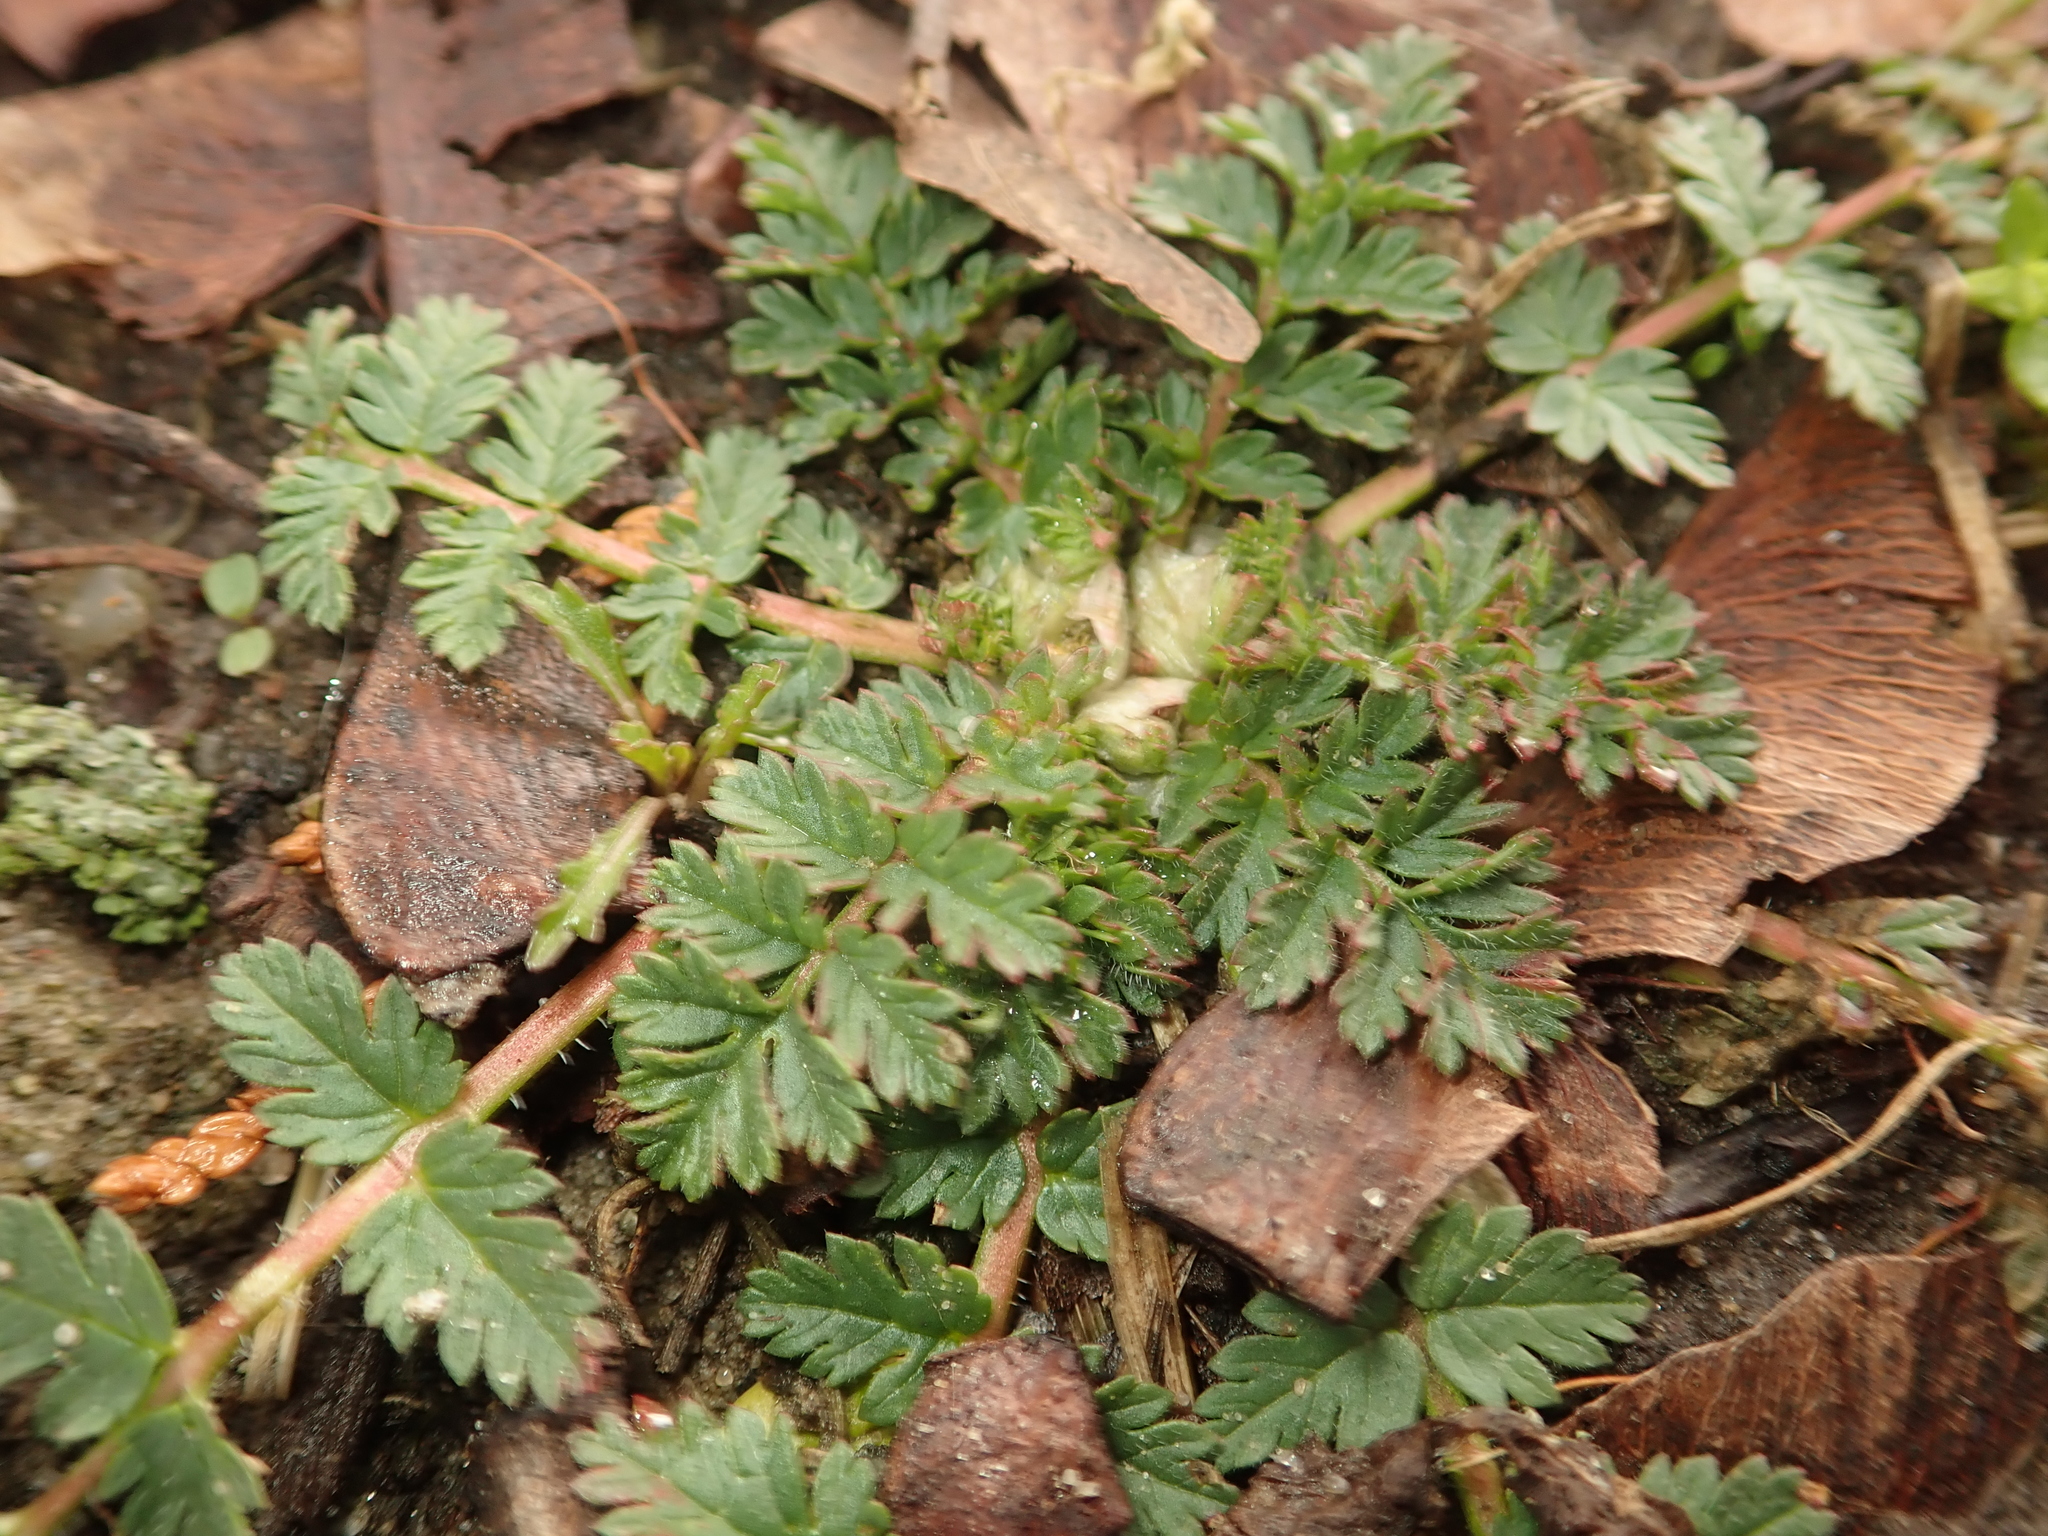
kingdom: Plantae
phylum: Tracheophyta
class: Magnoliopsida
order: Geraniales
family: Geraniaceae
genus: Erodium
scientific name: Erodium cicutarium
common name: Common stork's-bill
